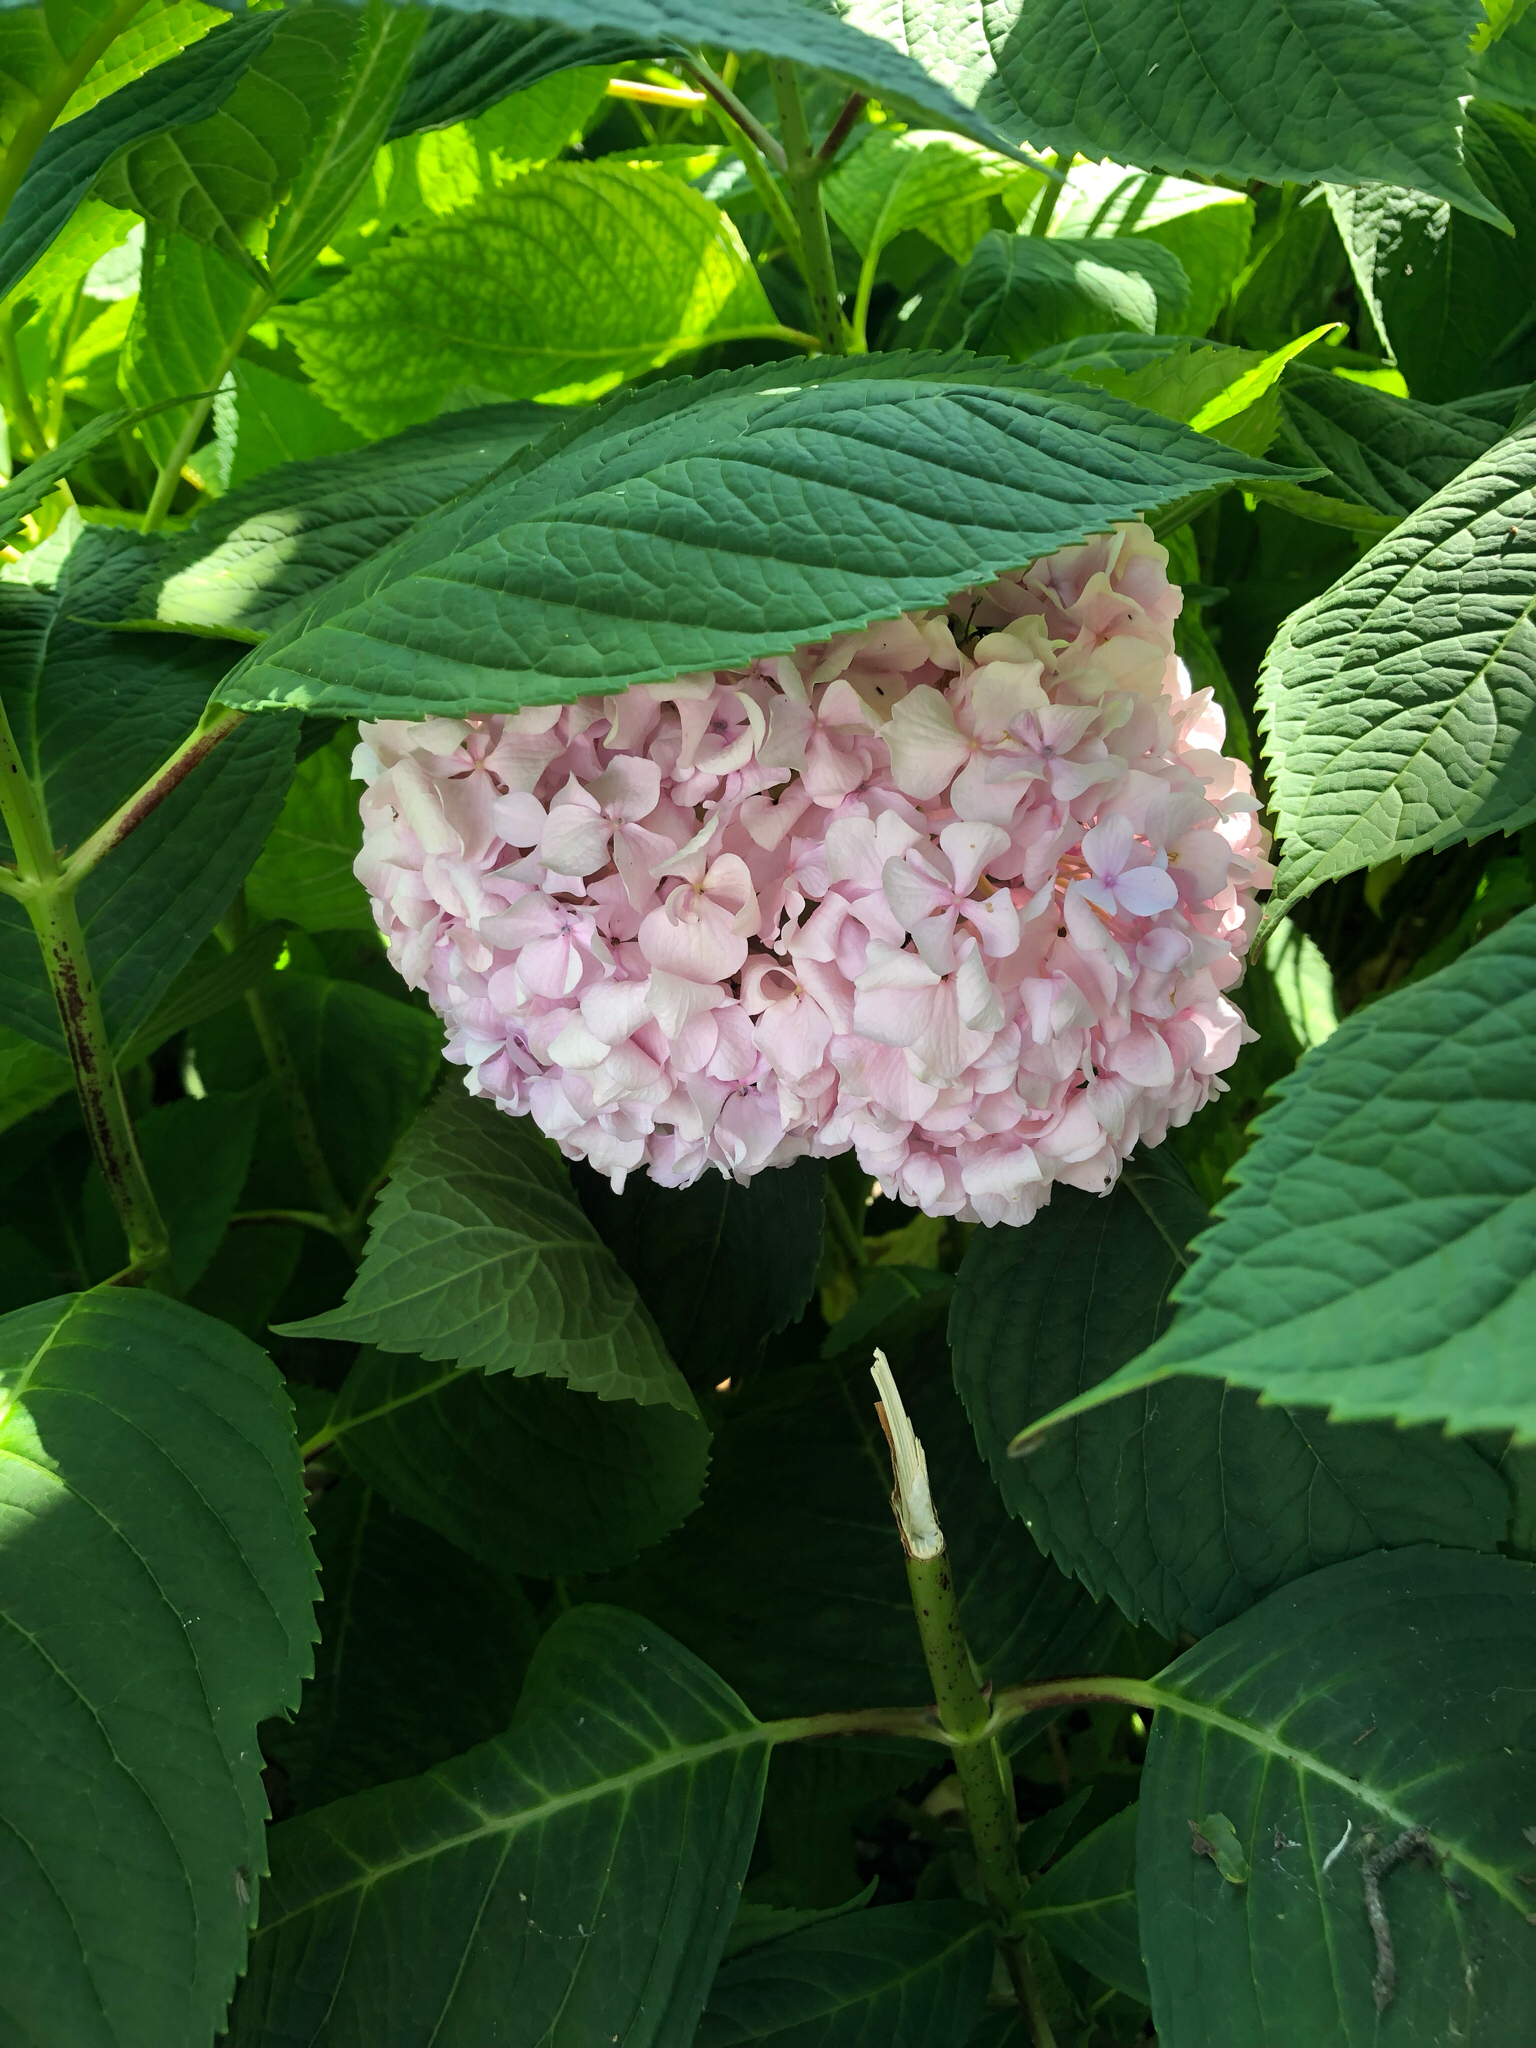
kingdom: Plantae
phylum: Tracheophyta
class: Magnoliopsida
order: Cornales
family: Hydrangeaceae
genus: Hydrangea
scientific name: Hydrangea macrophylla
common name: Hydrangea
